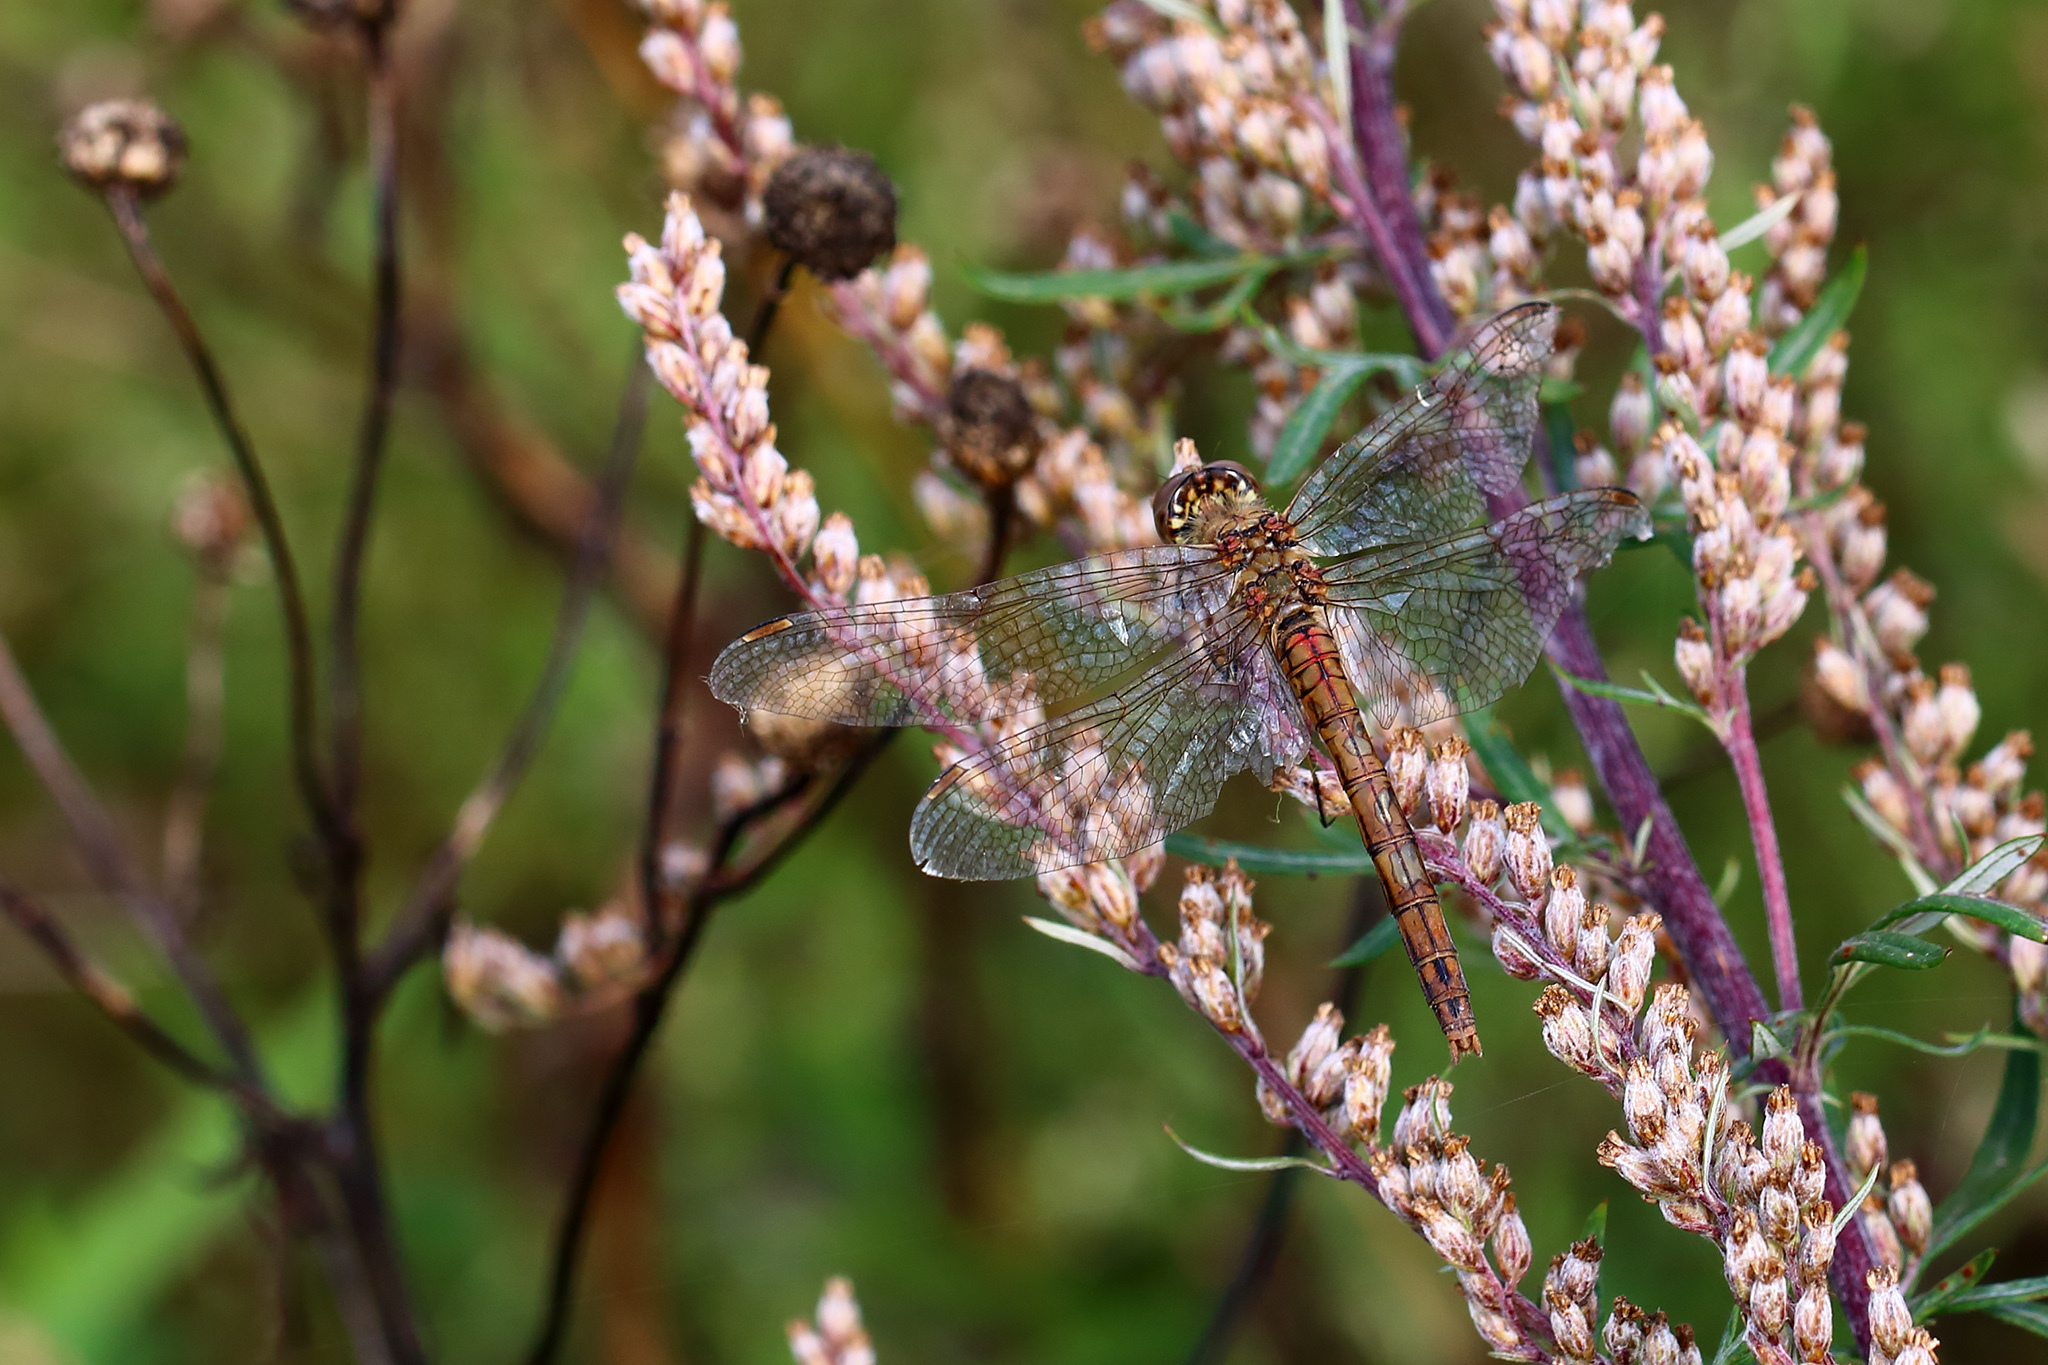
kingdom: Animalia
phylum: Arthropoda
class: Insecta
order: Odonata
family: Libellulidae
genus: Sympetrum
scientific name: Sympetrum striolatum
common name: Common darter
